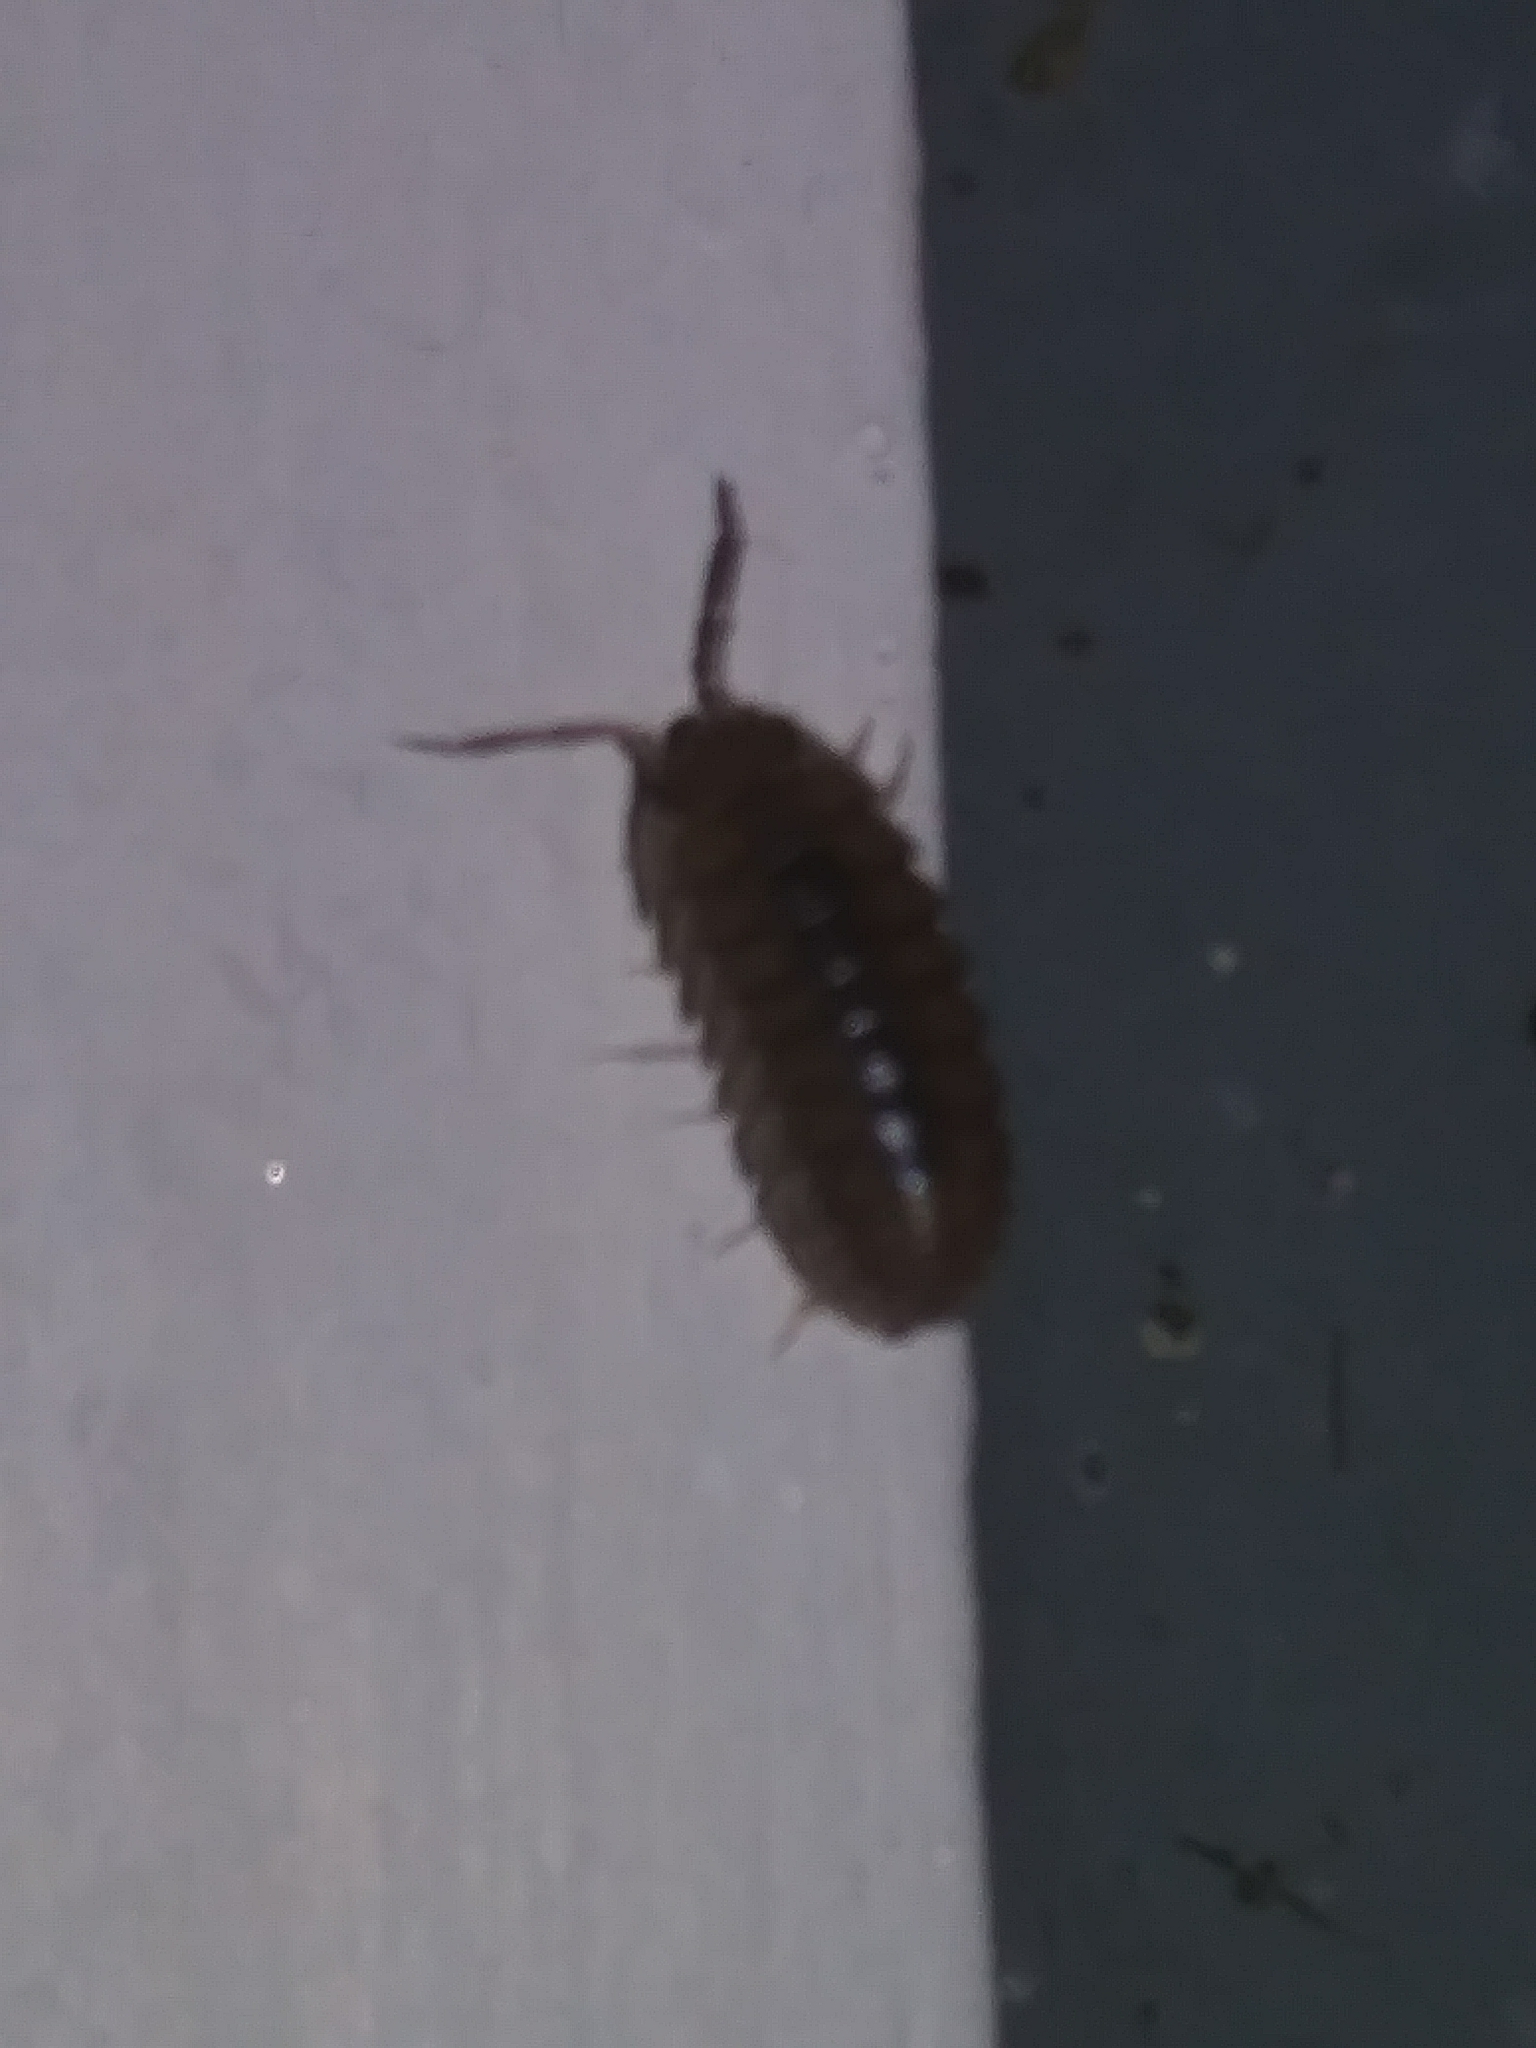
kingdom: Animalia
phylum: Arthropoda
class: Malacostraca
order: Isopoda
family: Armadillidiidae
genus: Armadillidium
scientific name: Armadillidium nasatum
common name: Isopod
